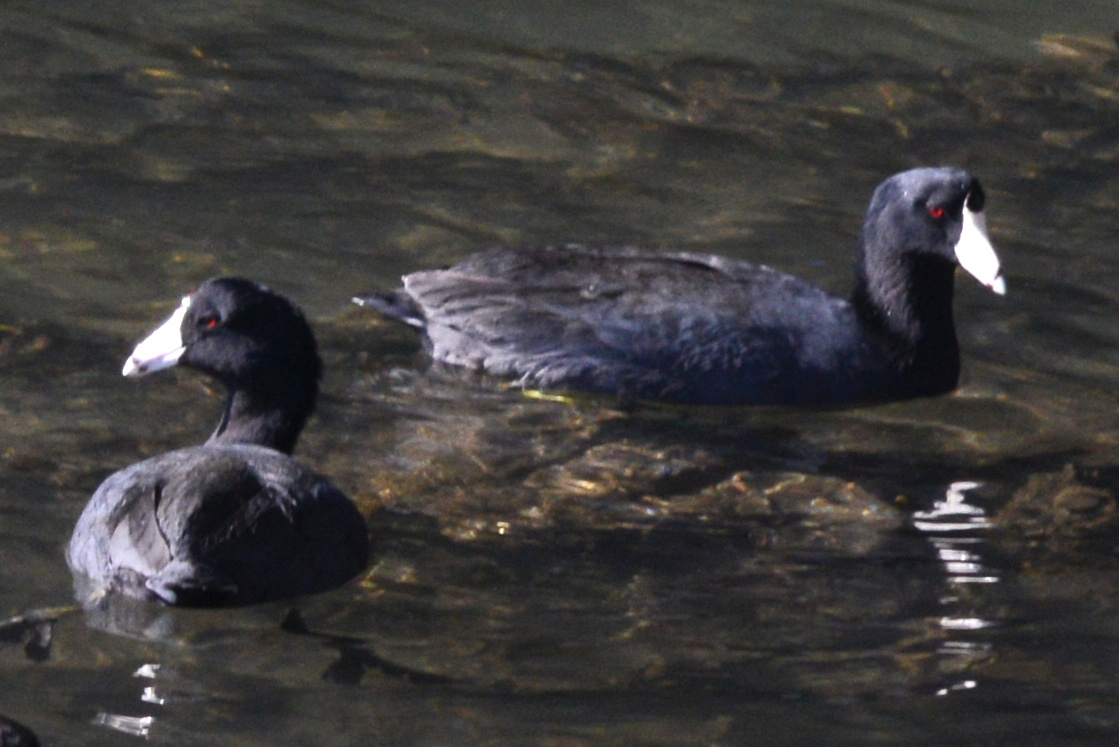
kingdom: Animalia
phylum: Chordata
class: Aves
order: Gruiformes
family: Rallidae
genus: Fulica
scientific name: Fulica americana
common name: American coot
